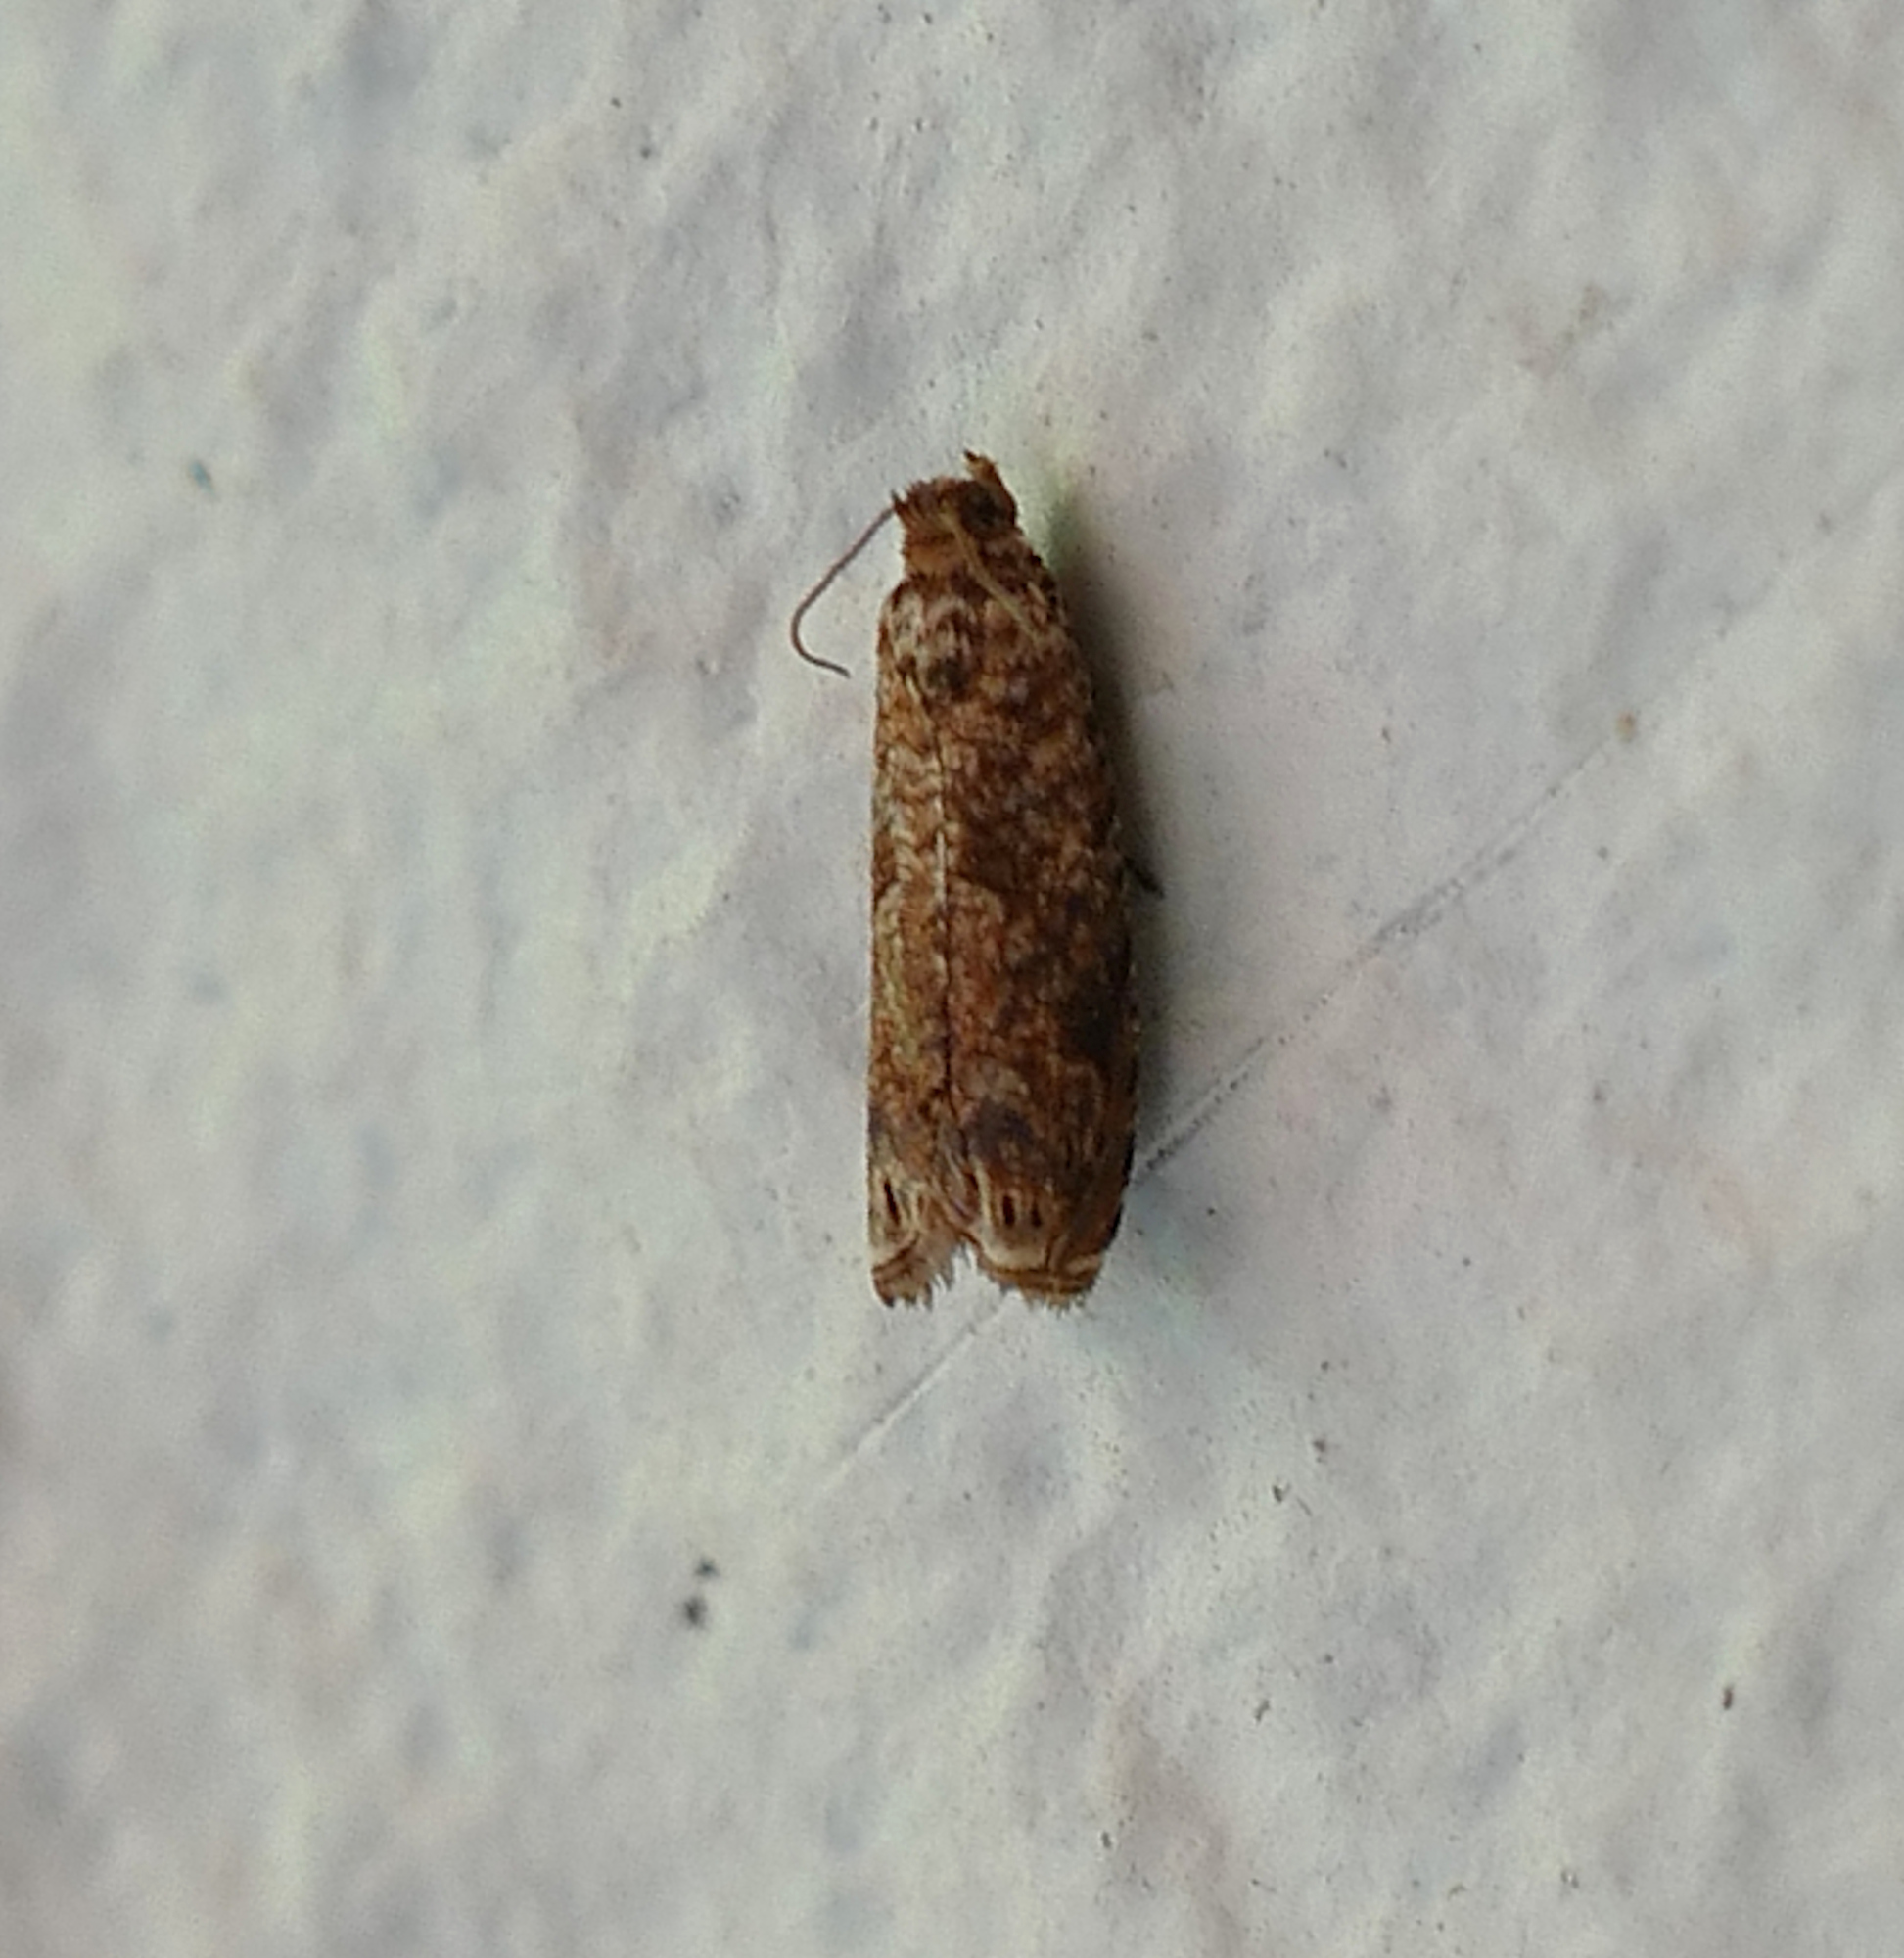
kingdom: Animalia
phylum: Arthropoda
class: Insecta
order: Lepidoptera
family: Tortricidae
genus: Episimus
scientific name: Episimus argutana
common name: Sumac leaftier moth
